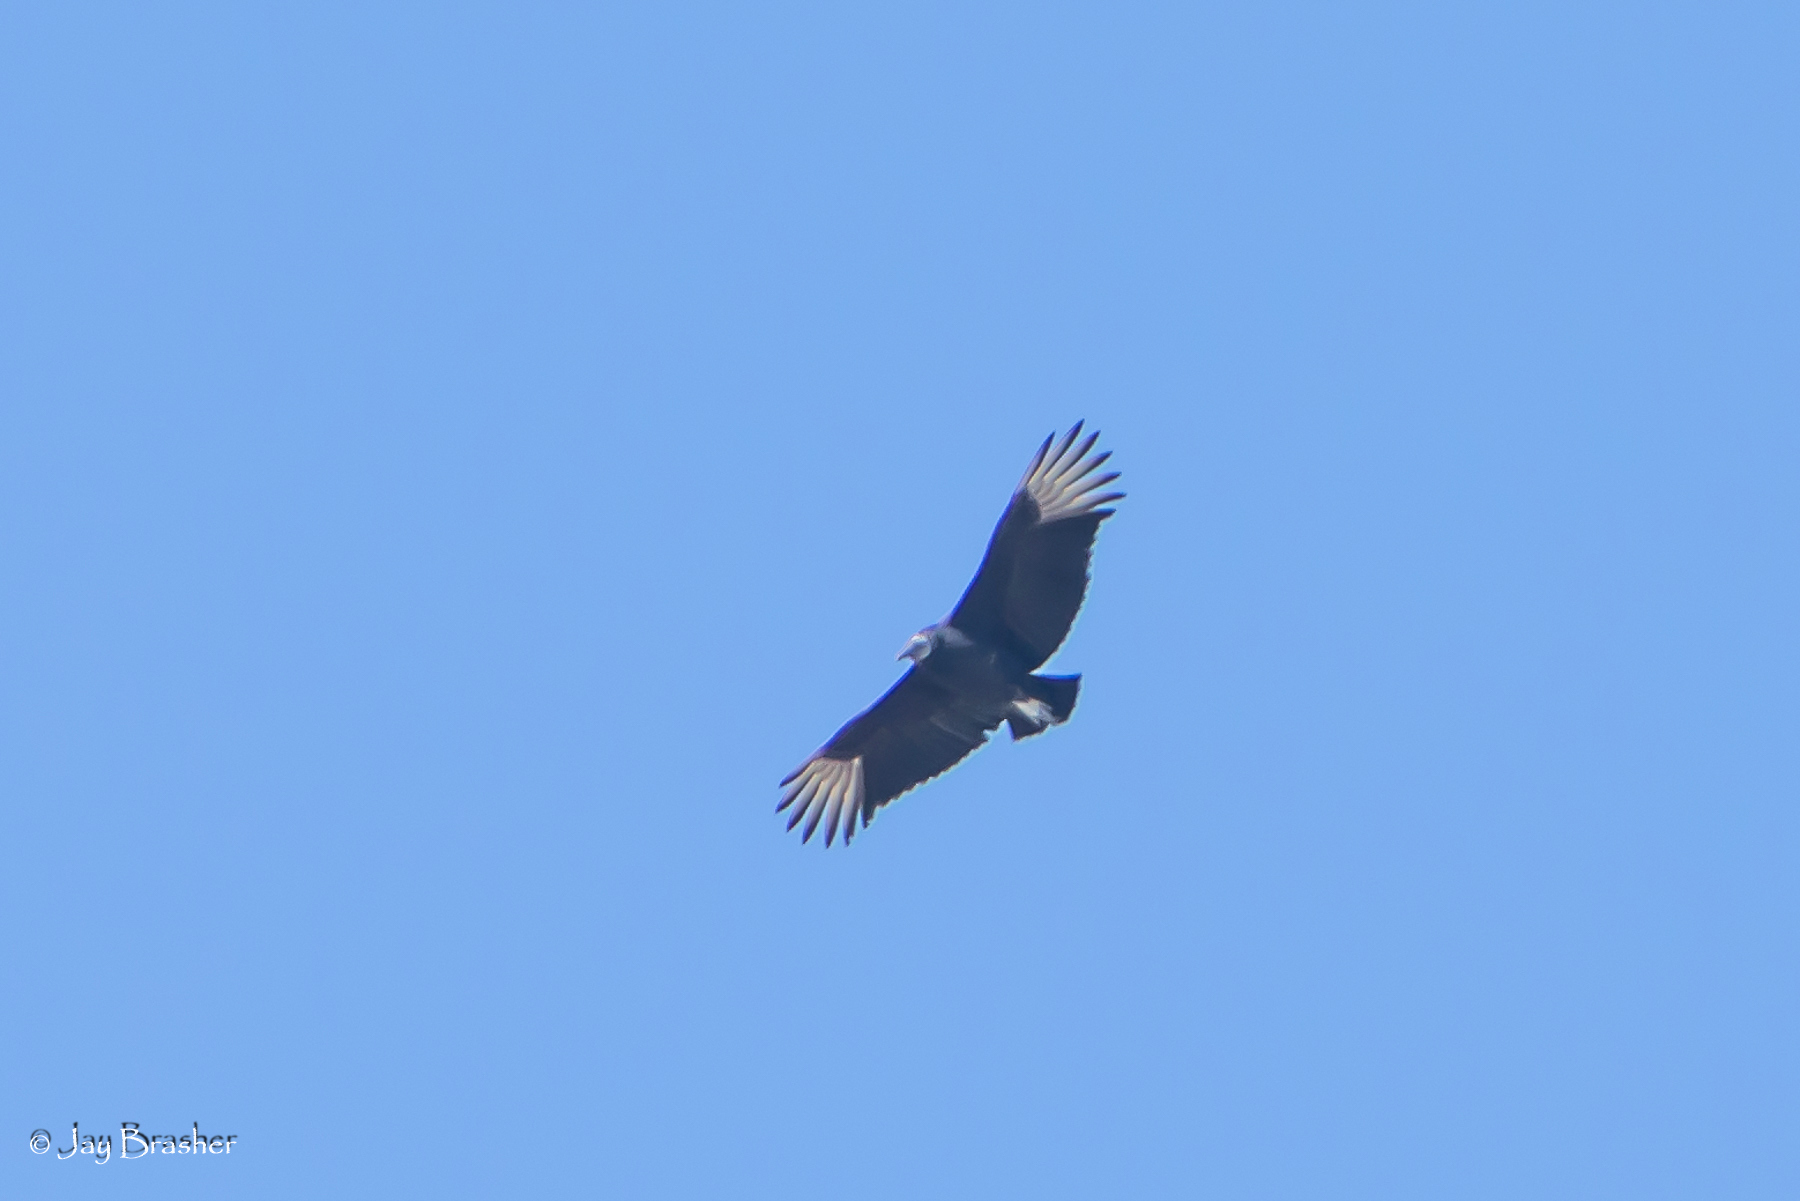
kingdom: Animalia
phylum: Chordata
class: Aves
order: Accipitriformes
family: Cathartidae
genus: Coragyps
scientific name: Coragyps atratus
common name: Black vulture
